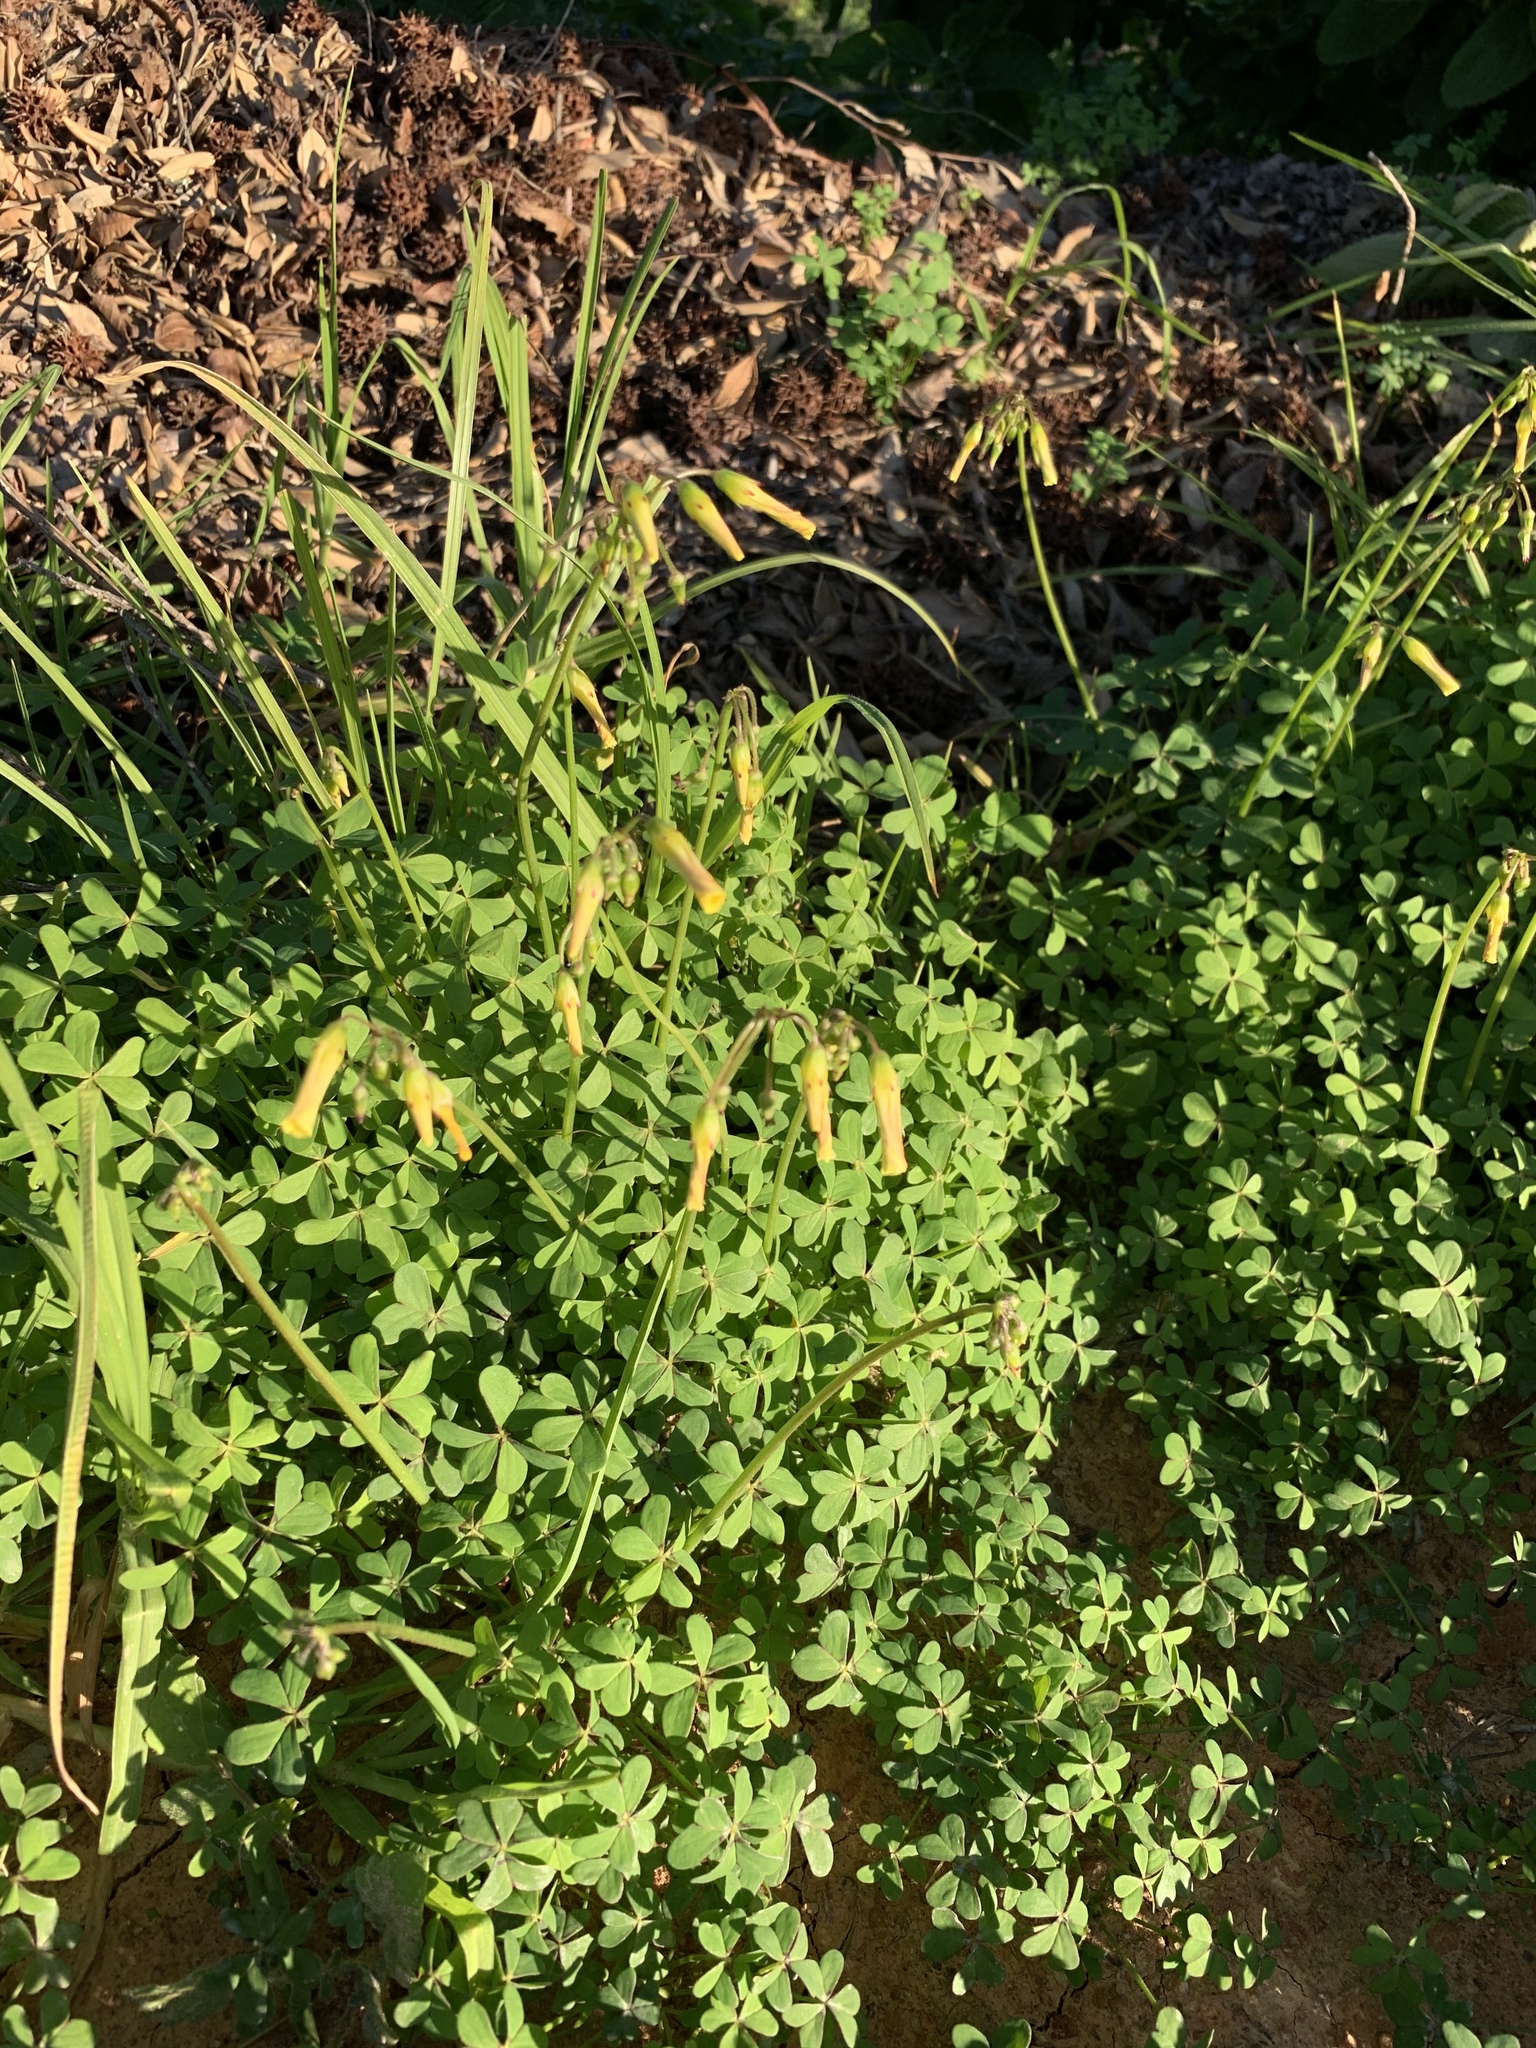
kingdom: Plantae
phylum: Tracheophyta
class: Magnoliopsida
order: Oxalidales
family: Oxalidaceae
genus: Oxalis
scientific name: Oxalis pes-caprae
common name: Bermuda-buttercup
